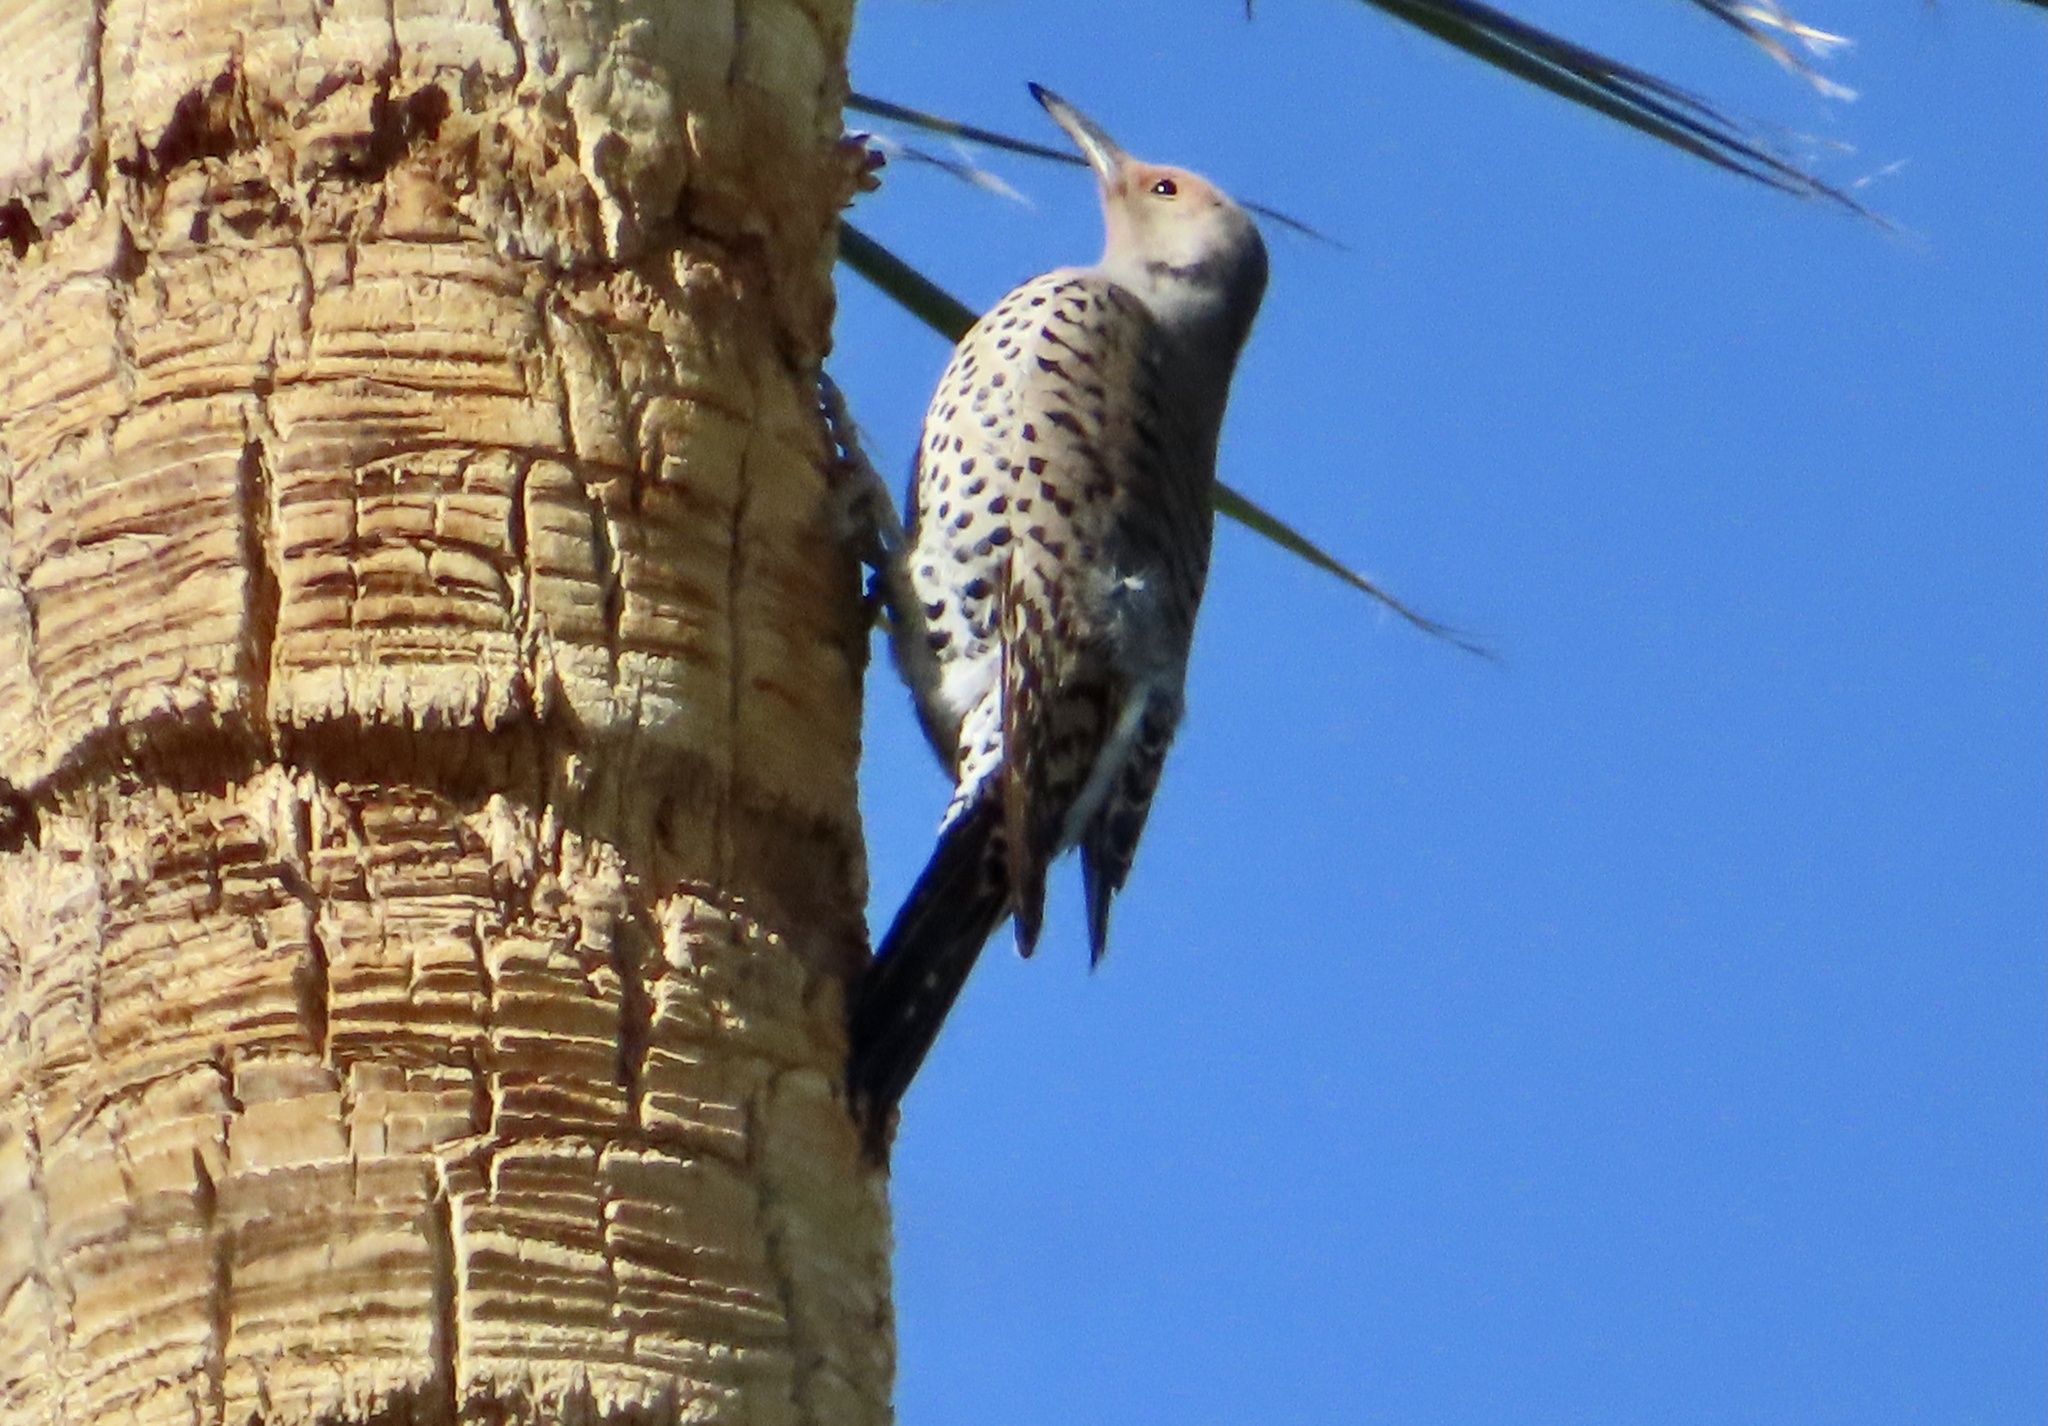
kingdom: Animalia
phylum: Chordata
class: Aves
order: Piciformes
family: Picidae
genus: Colaptes
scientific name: Colaptes auratus
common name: Northern flicker
